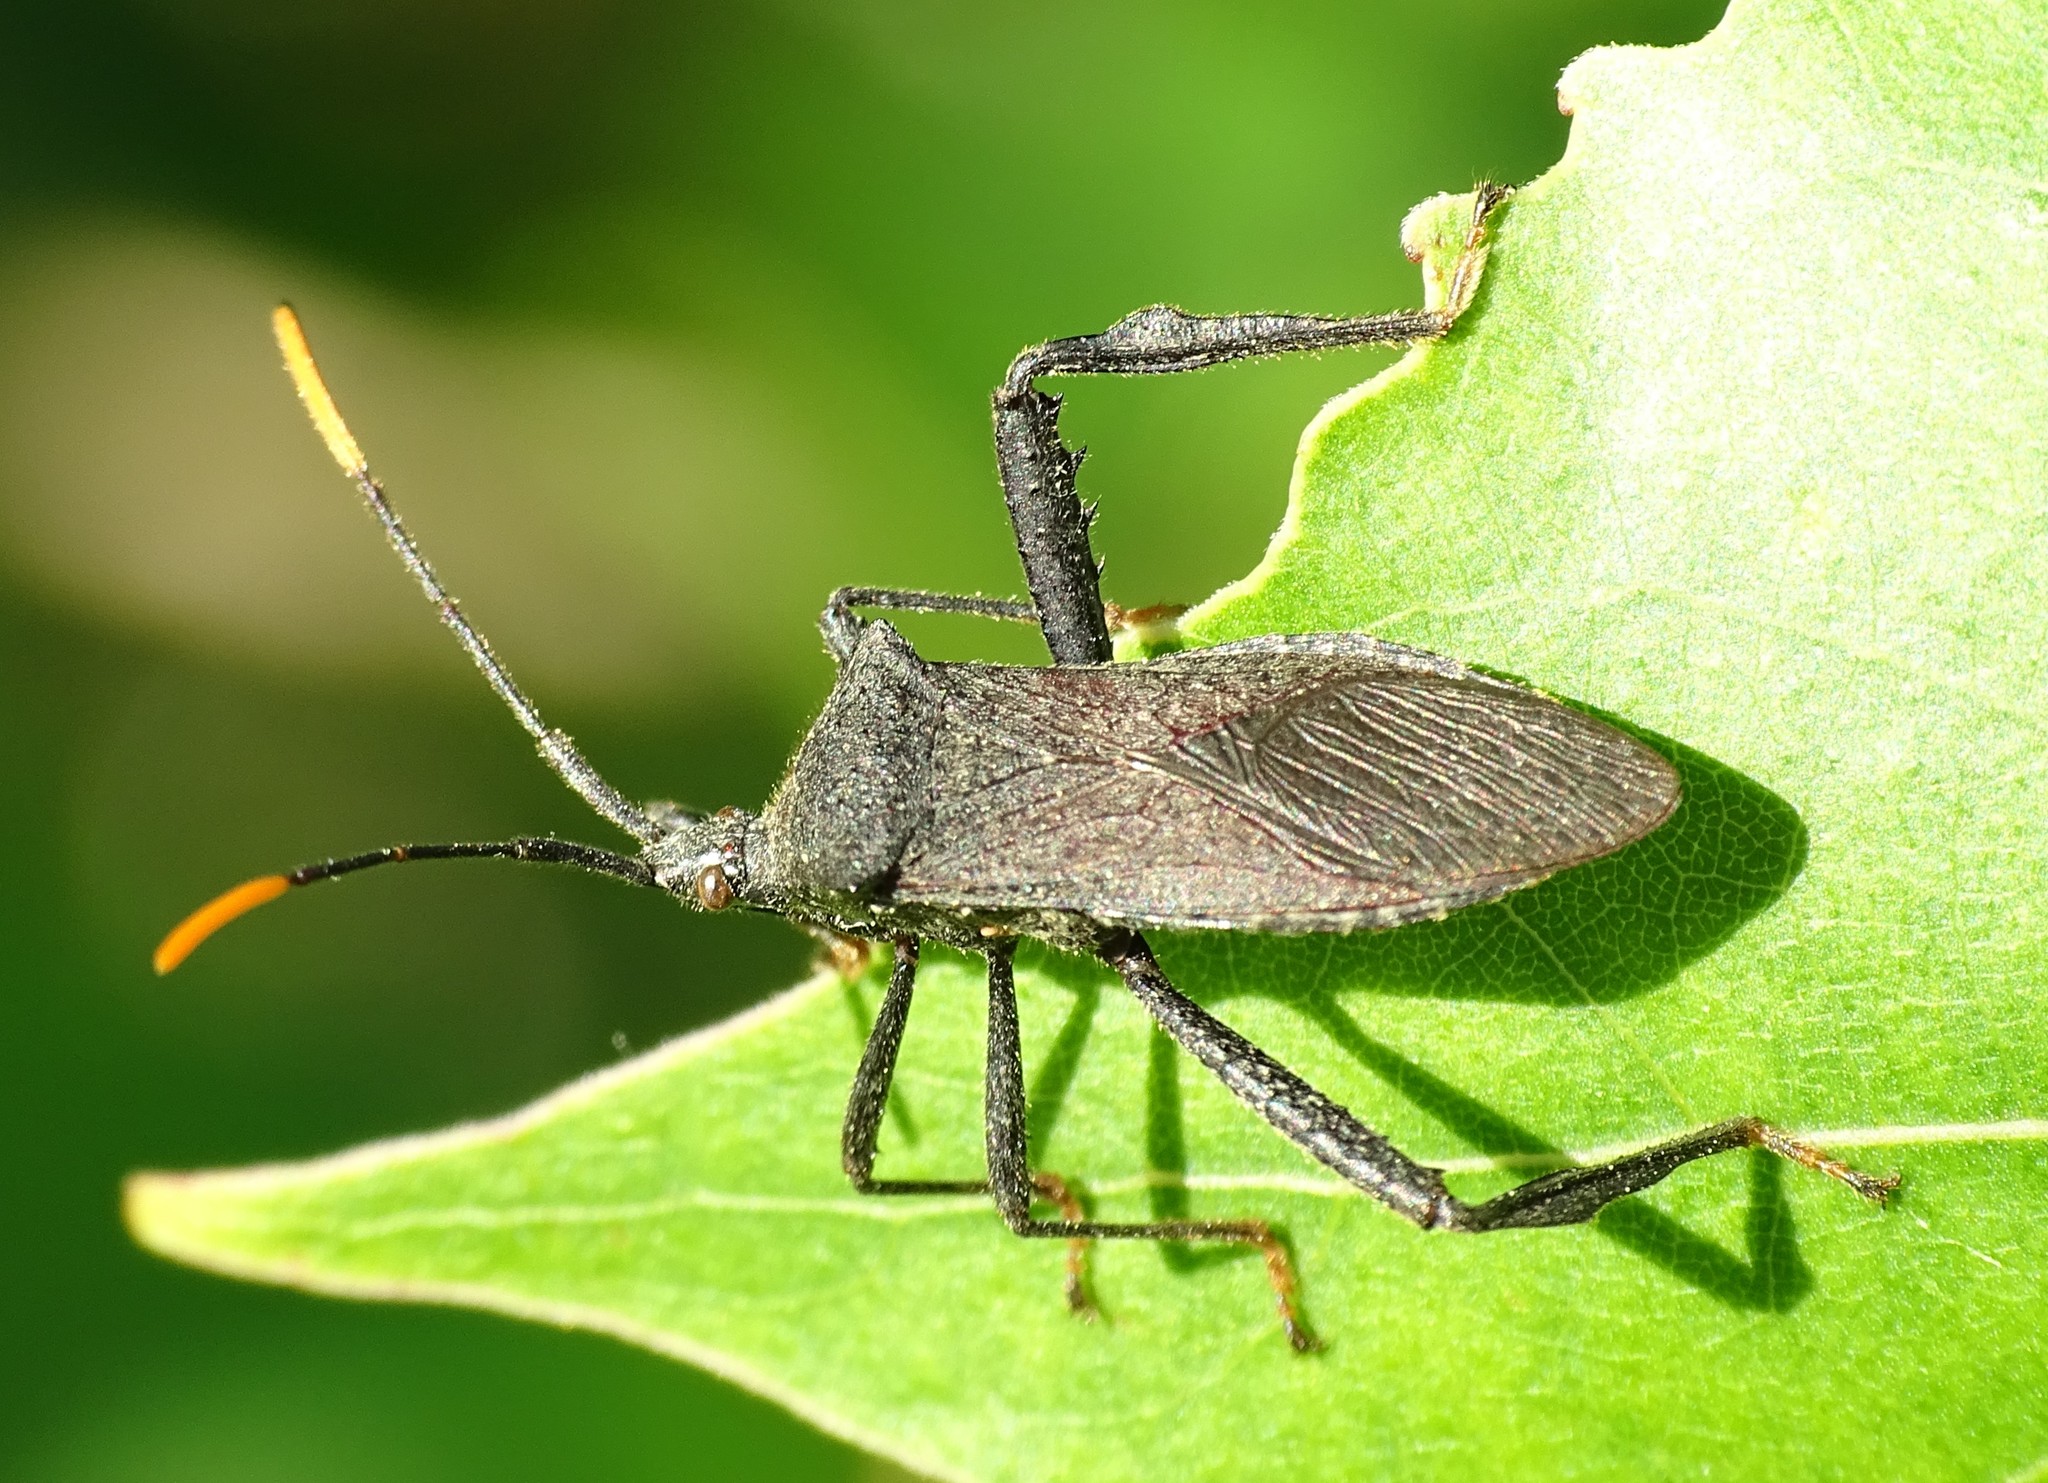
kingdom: Animalia
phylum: Arthropoda
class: Insecta
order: Hemiptera
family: Coreidae
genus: Acanthocephala
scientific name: Acanthocephala terminalis
